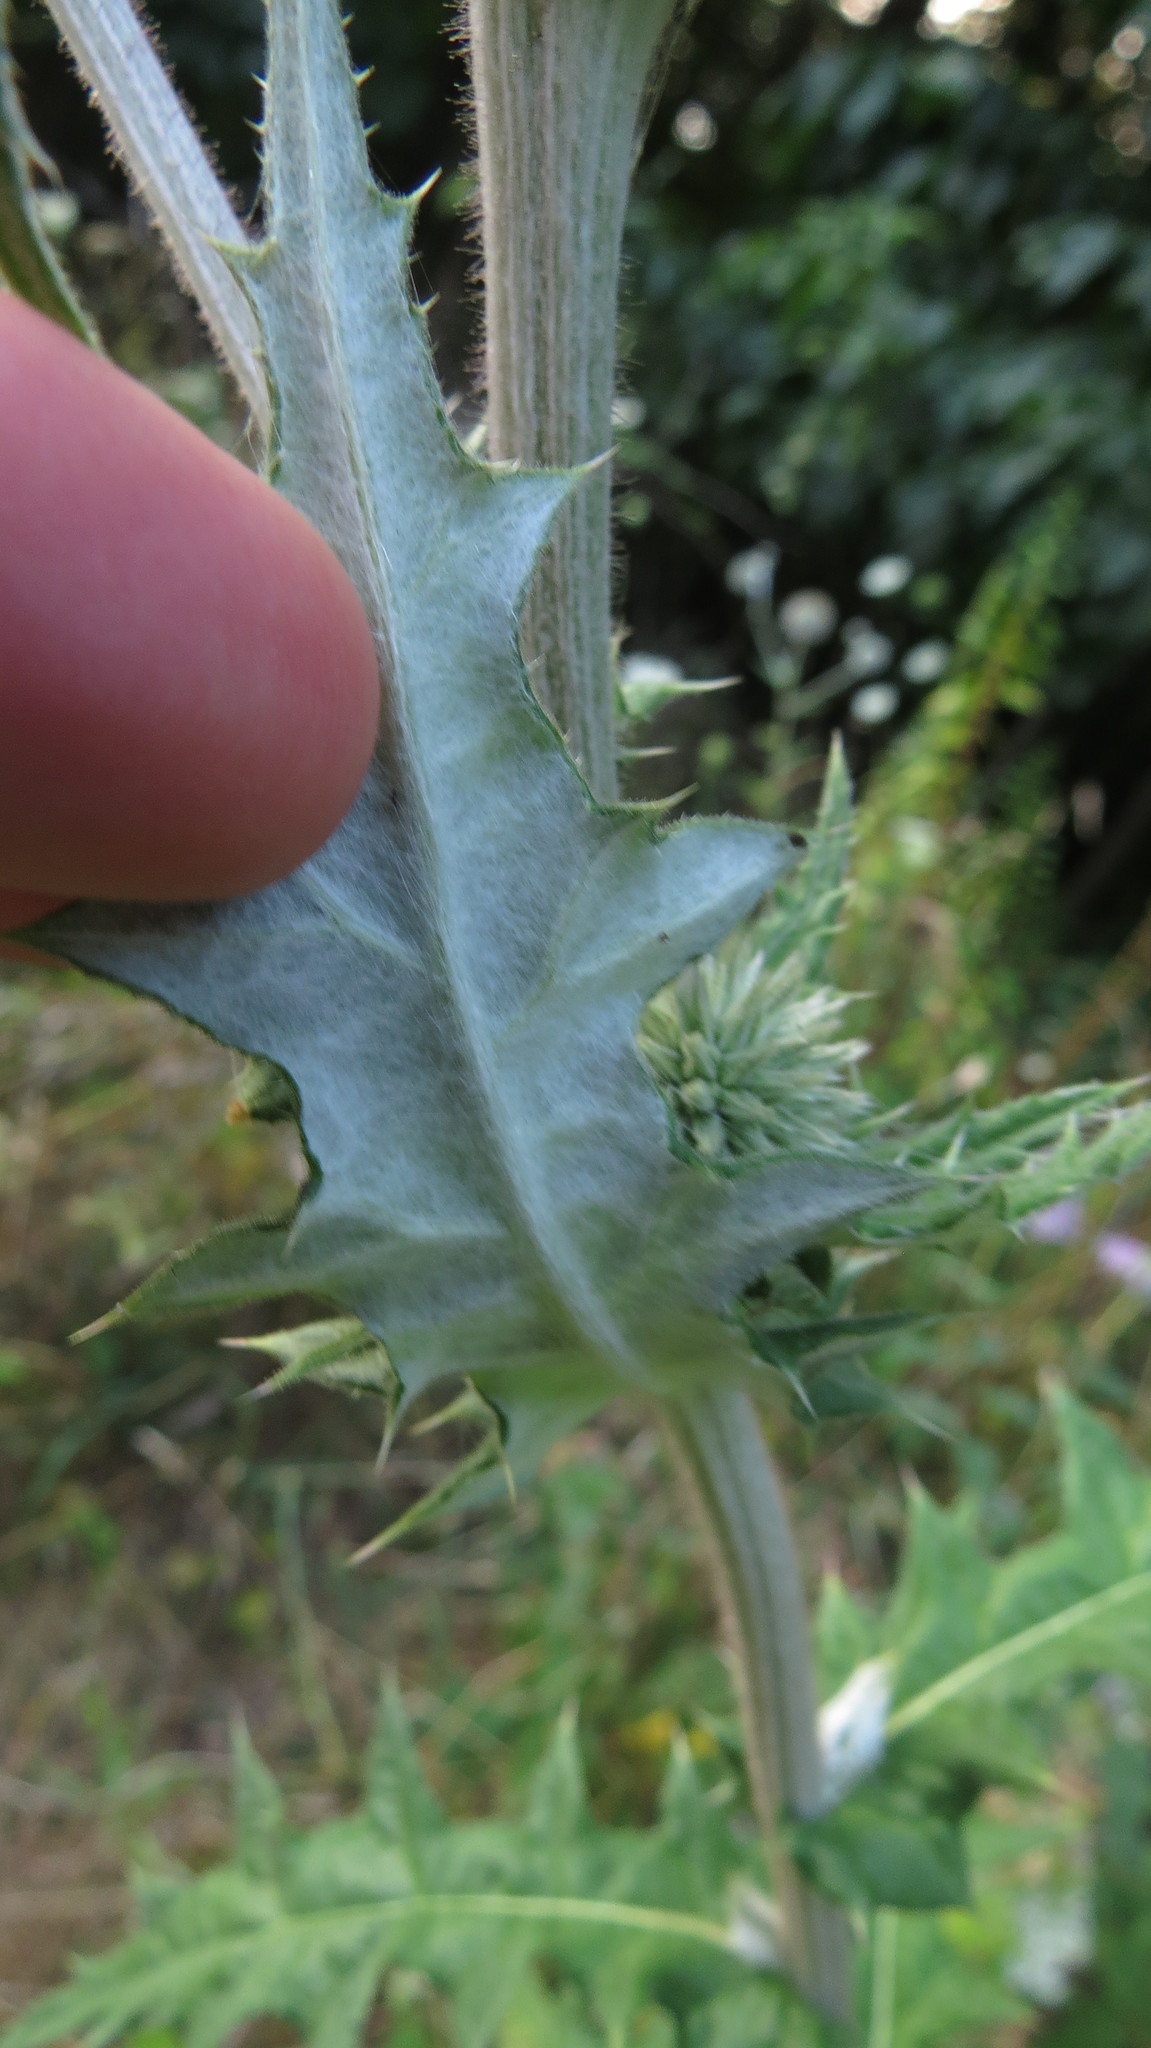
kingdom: Plantae
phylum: Tracheophyta
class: Magnoliopsida
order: Asterales
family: Asteraceae
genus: Echinops
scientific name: Echinops sphaerocephalus
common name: Glandular globe-thistle
